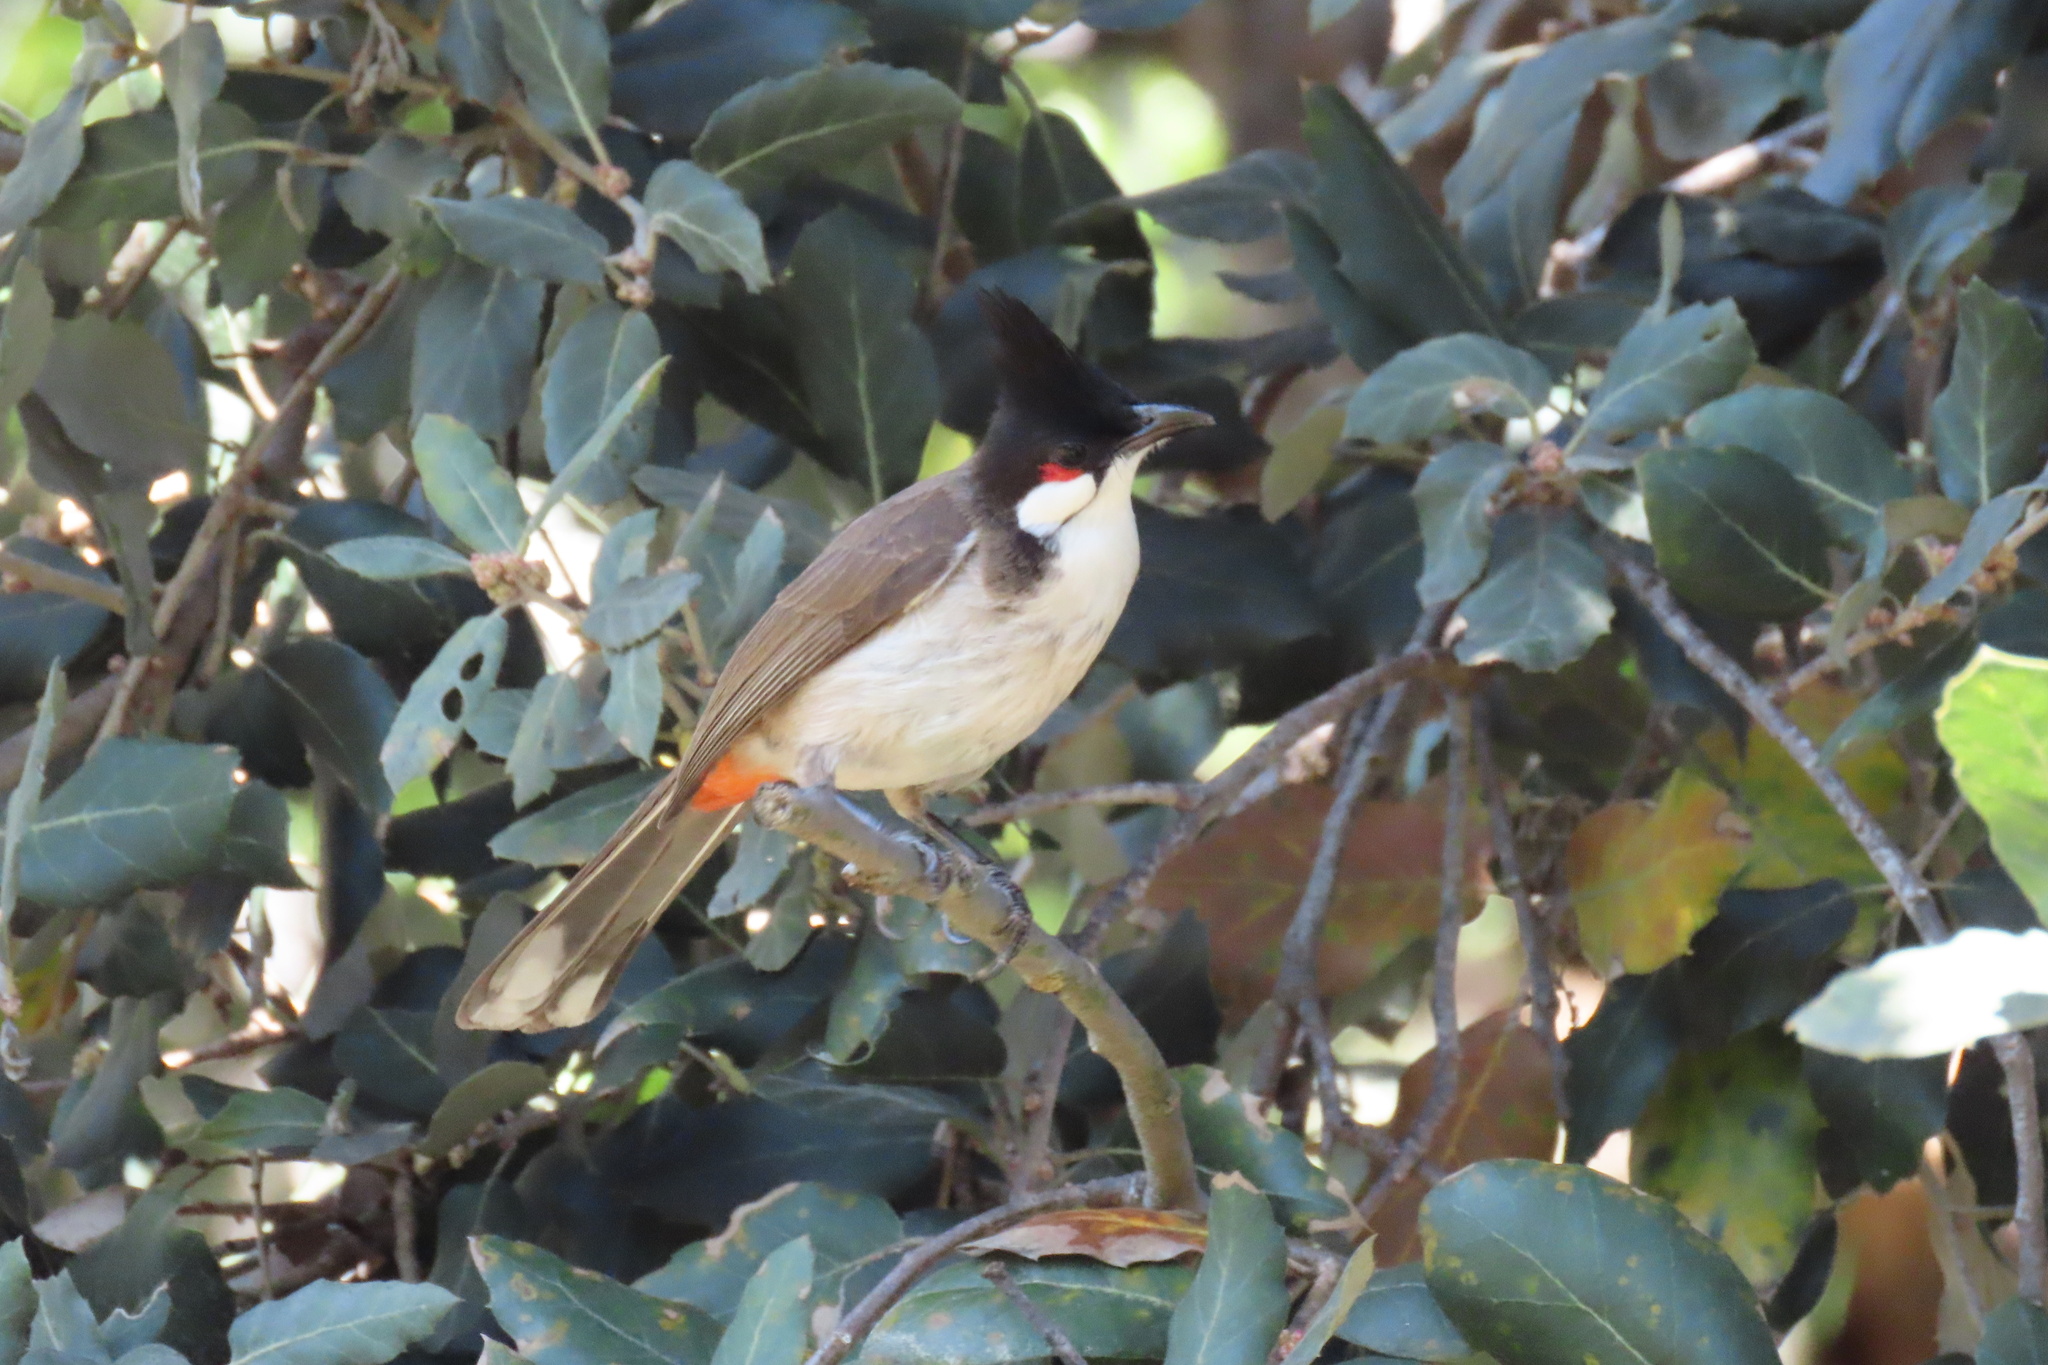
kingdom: Animalia
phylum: Chordata
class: Aves
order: Passeriformes
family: Pycnonotidae
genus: Pycnonotus
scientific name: Pycnonotus jocosus
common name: Red-whiskered bulbul
